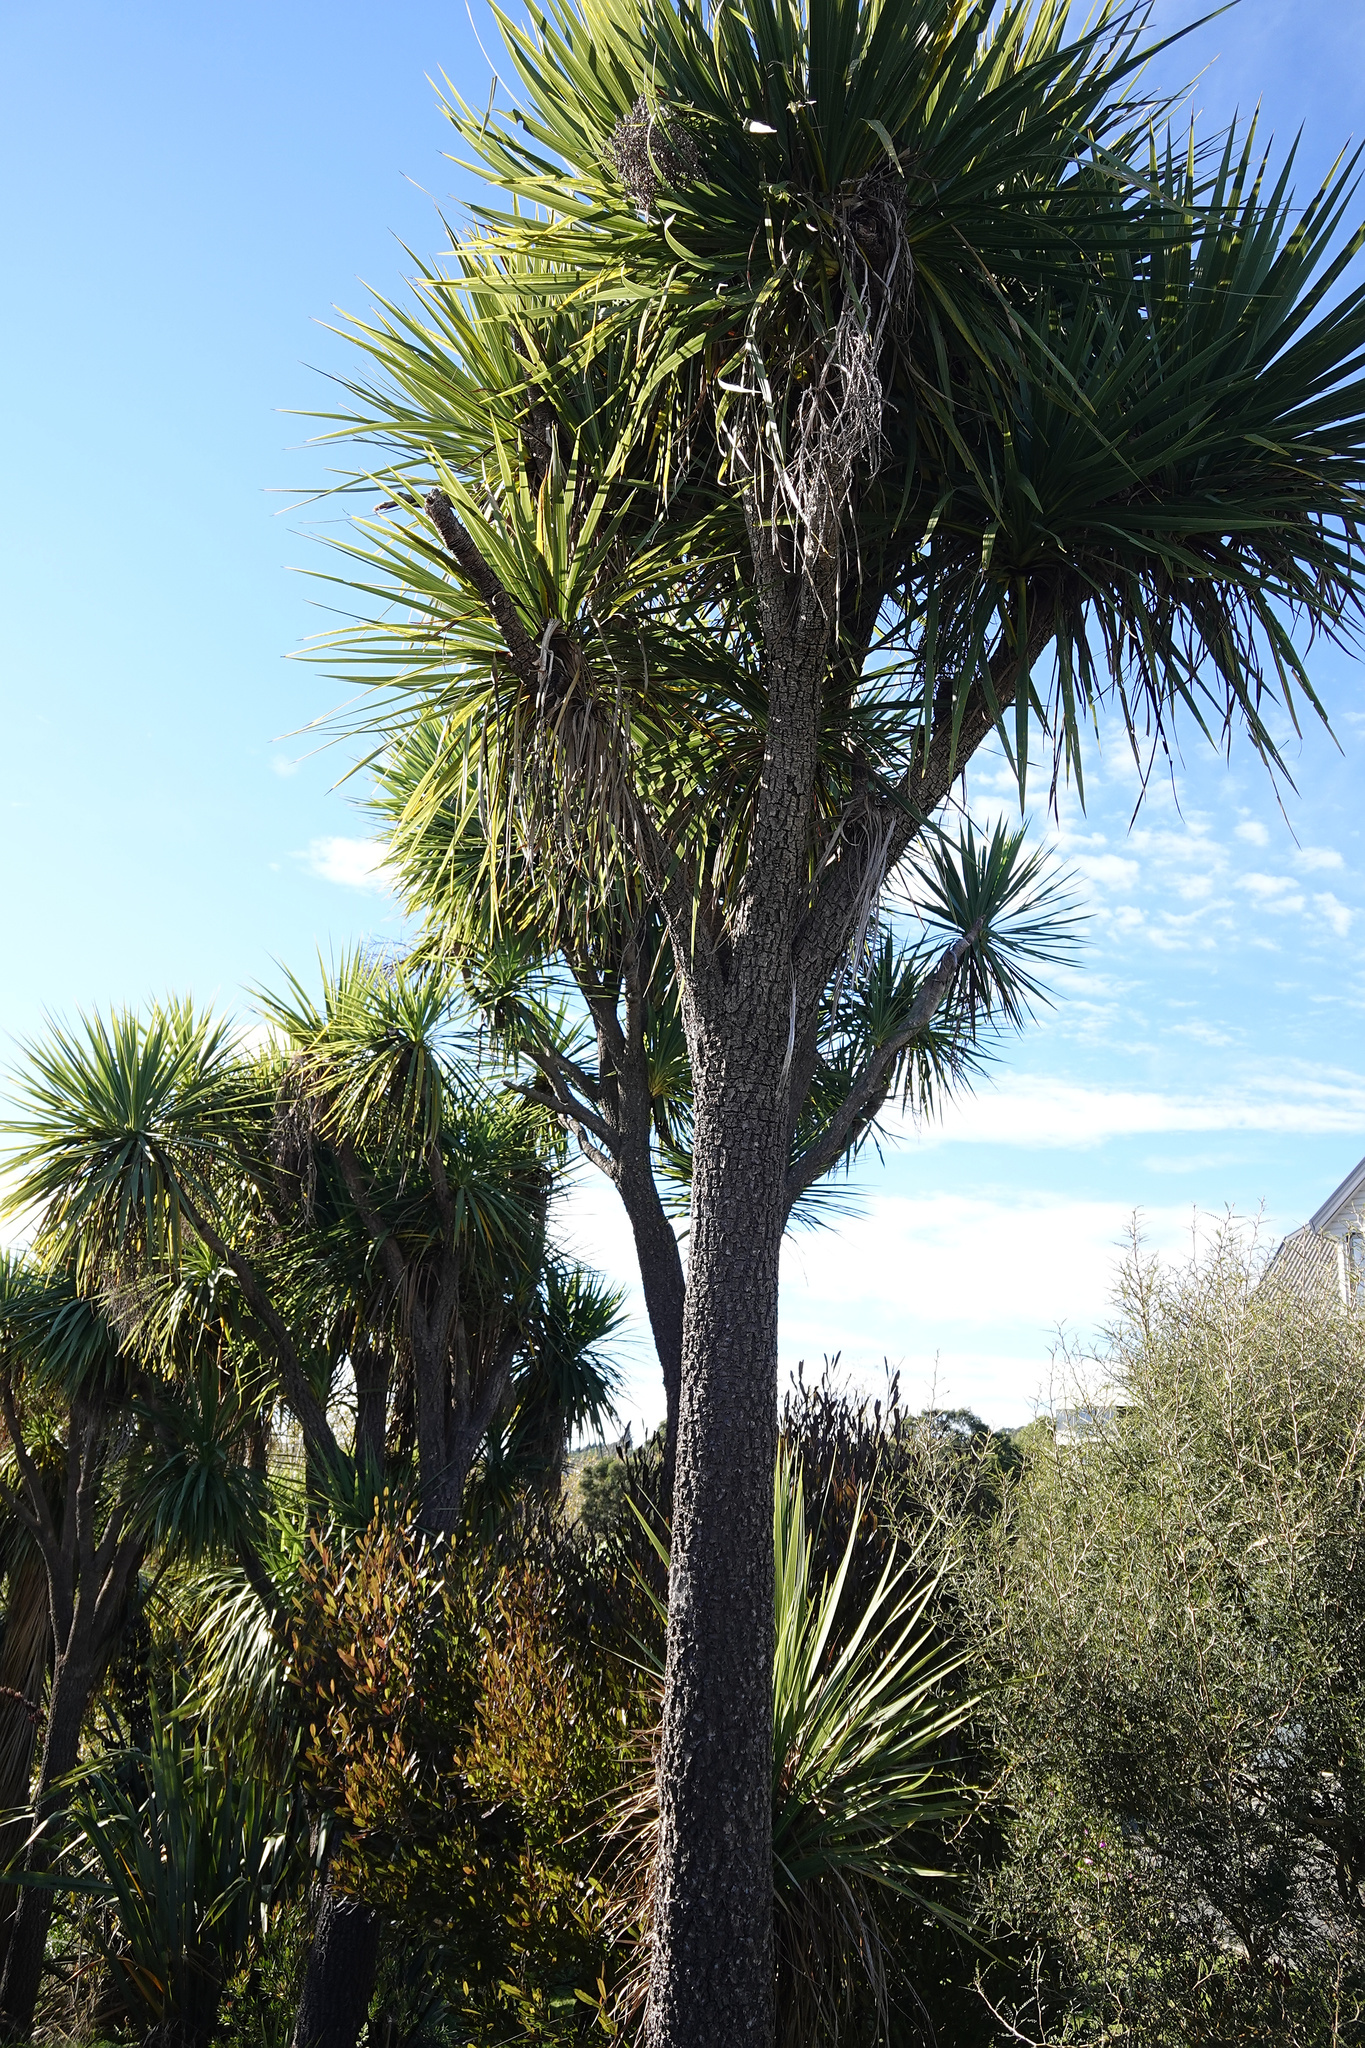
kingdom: Plantae
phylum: Tracheophyta
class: Liliopsida
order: Asparagales
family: Asparagaceae
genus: Cordyline
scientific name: Cordyline australis
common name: Cabbage-palm
